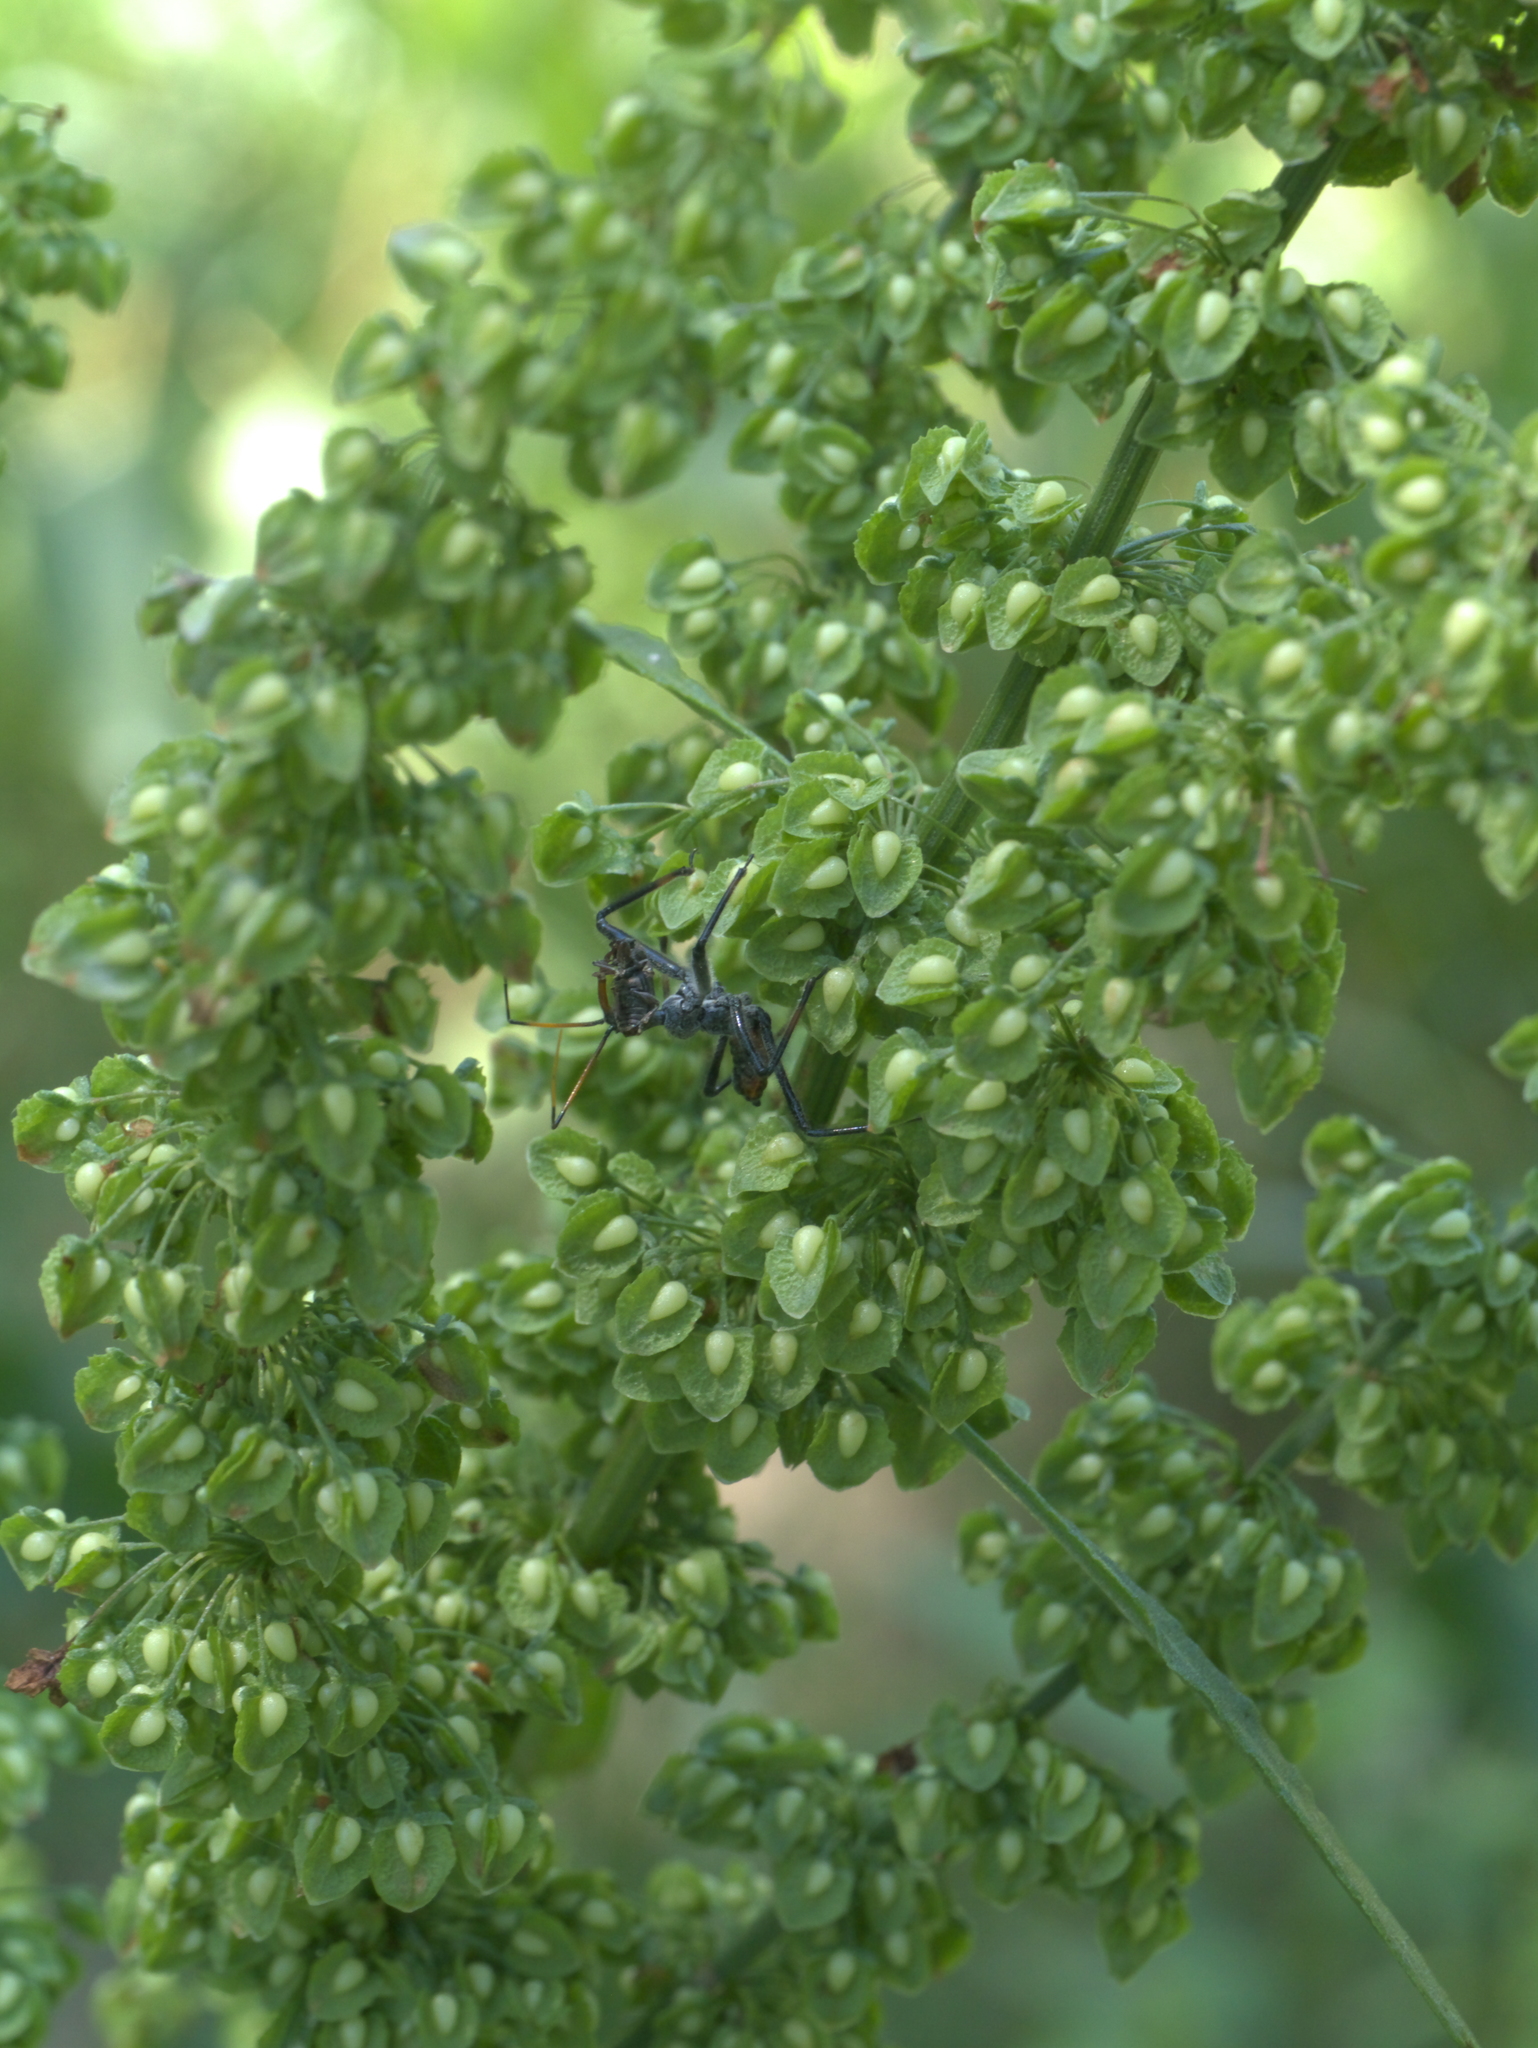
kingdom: Plantae
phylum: Tracheophyta
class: Magnoliopsida
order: Caryophyllales
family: Polygonaceae
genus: Rumex
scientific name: Rumex crispus
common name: Curled dock
